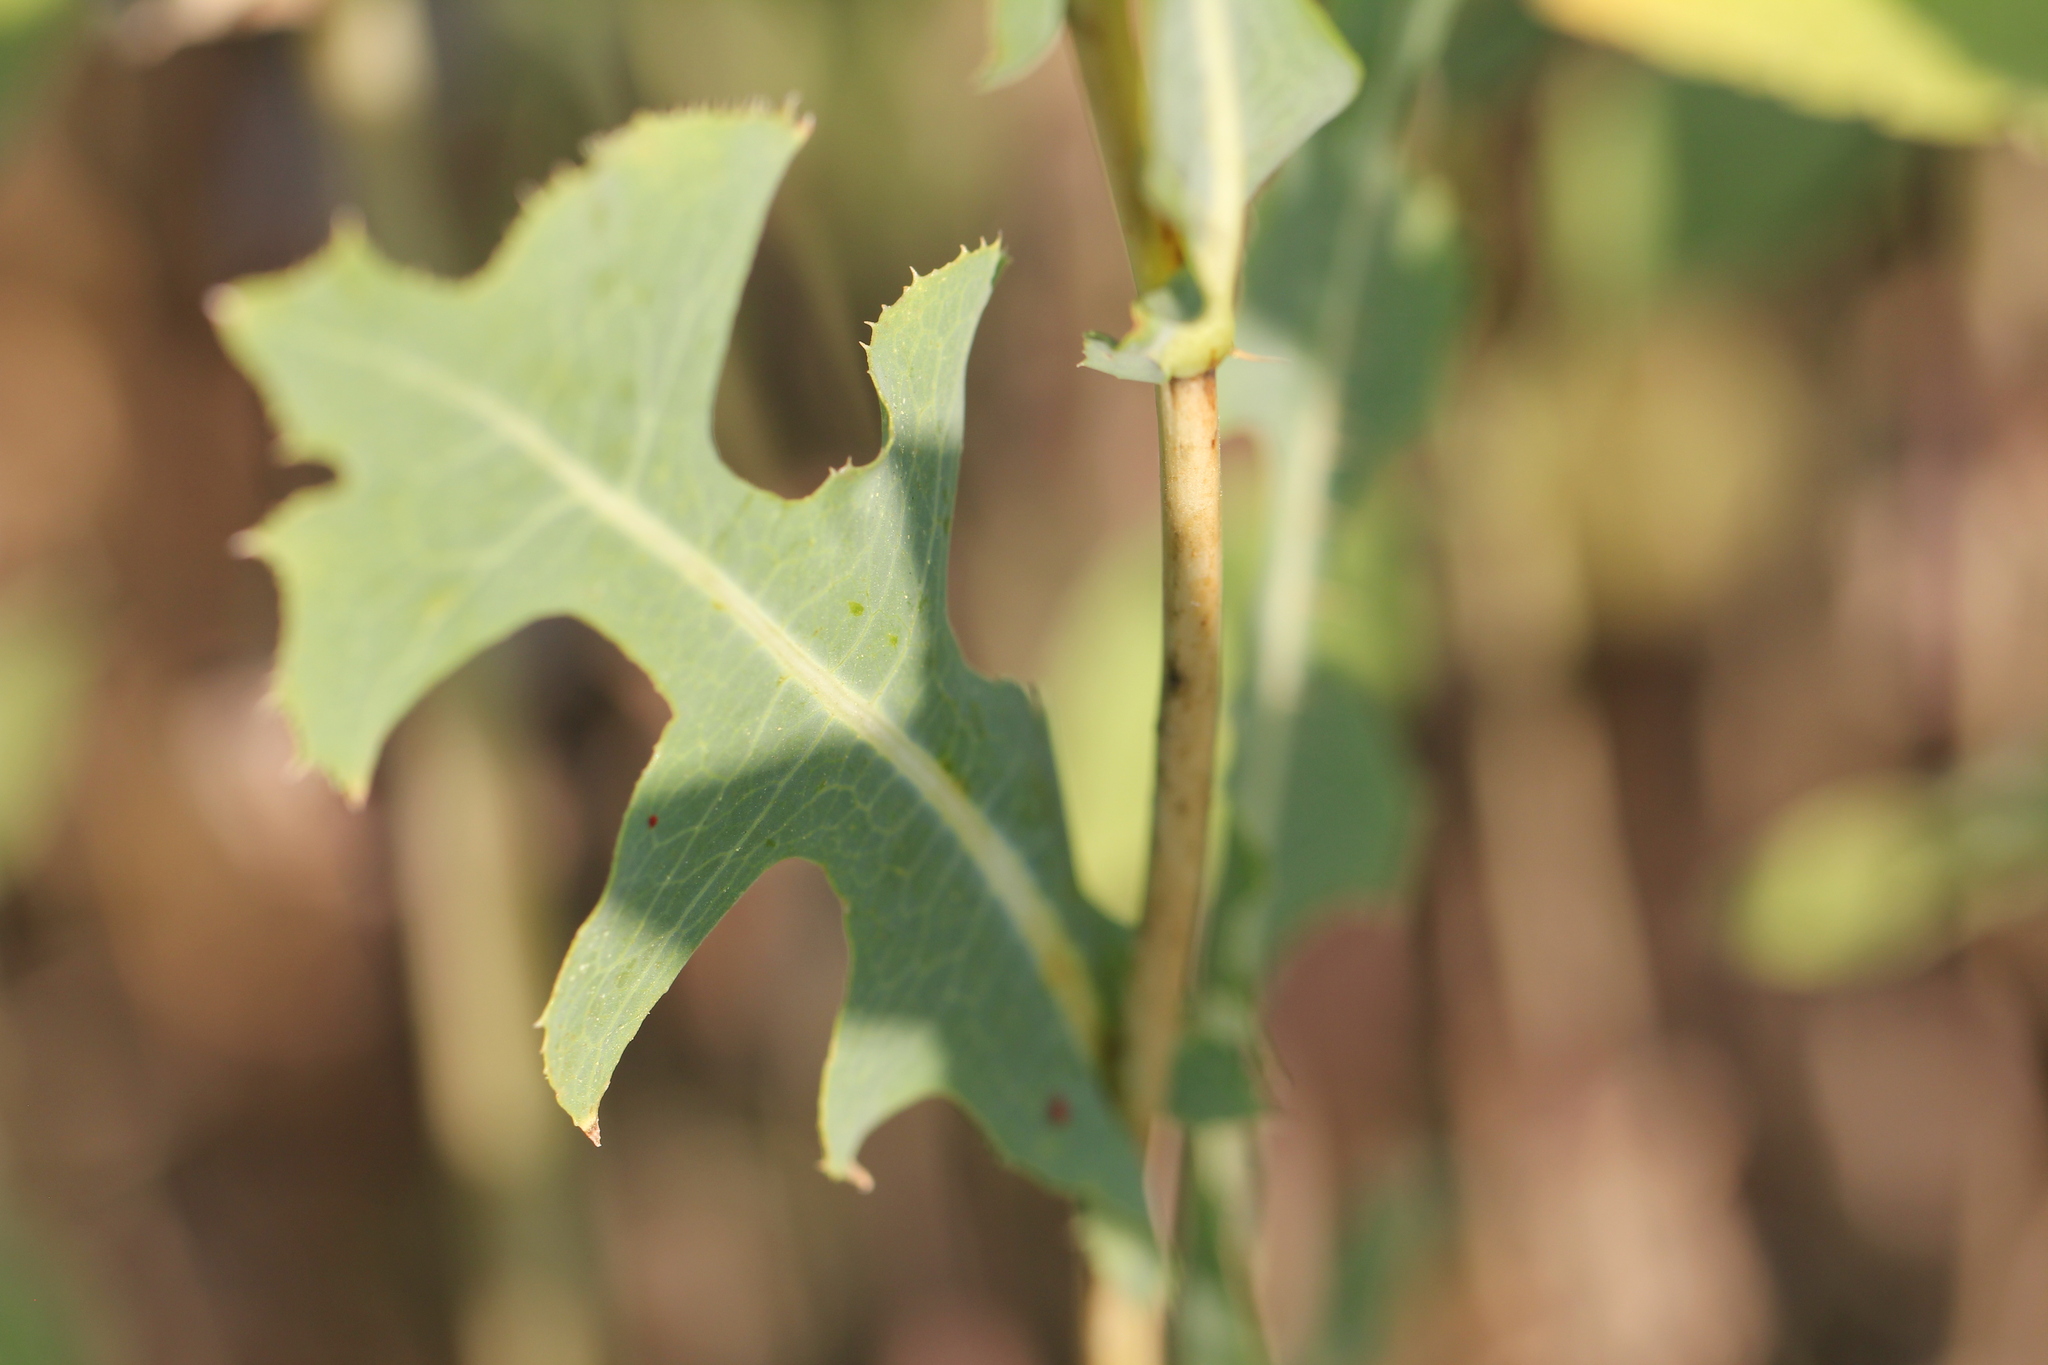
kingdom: Plantae
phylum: Tracheophyta
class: Magnoliopsida
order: Asterales
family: Asteraceae
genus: Lactuca
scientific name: Lactuca serriola
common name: Prickly lettuce
